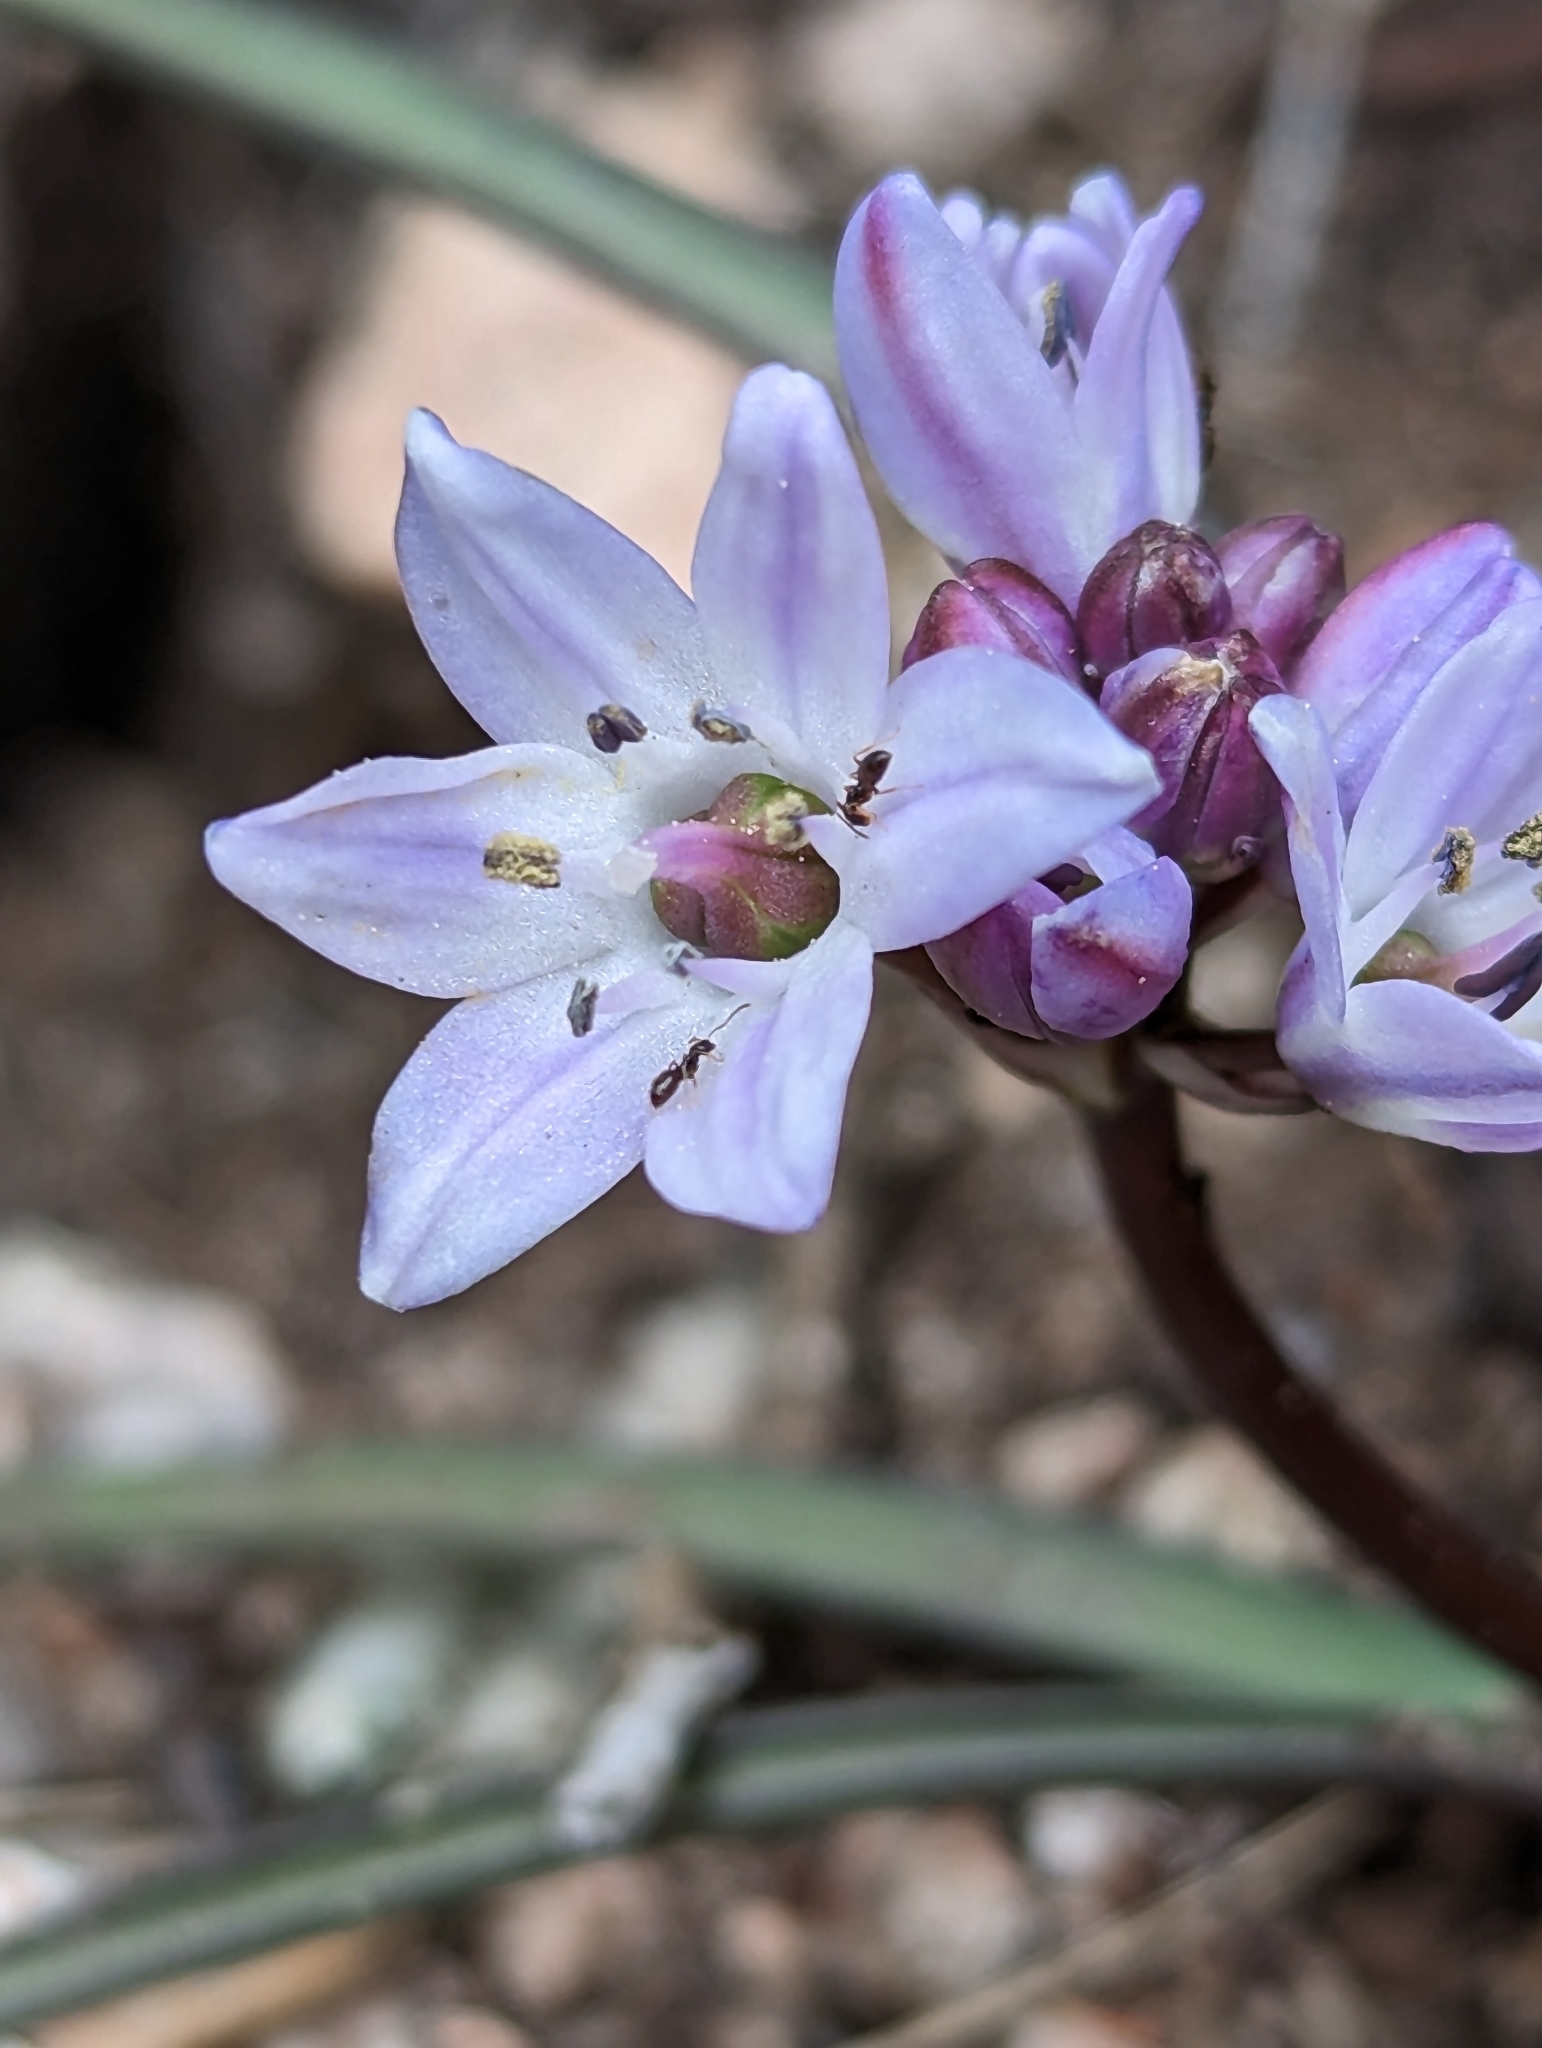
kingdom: Plantae
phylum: Tracheophyta
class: Liliopsida
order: Asparagales
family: Asparagaceae
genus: Brimeura
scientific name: Brimeura fastigiata
